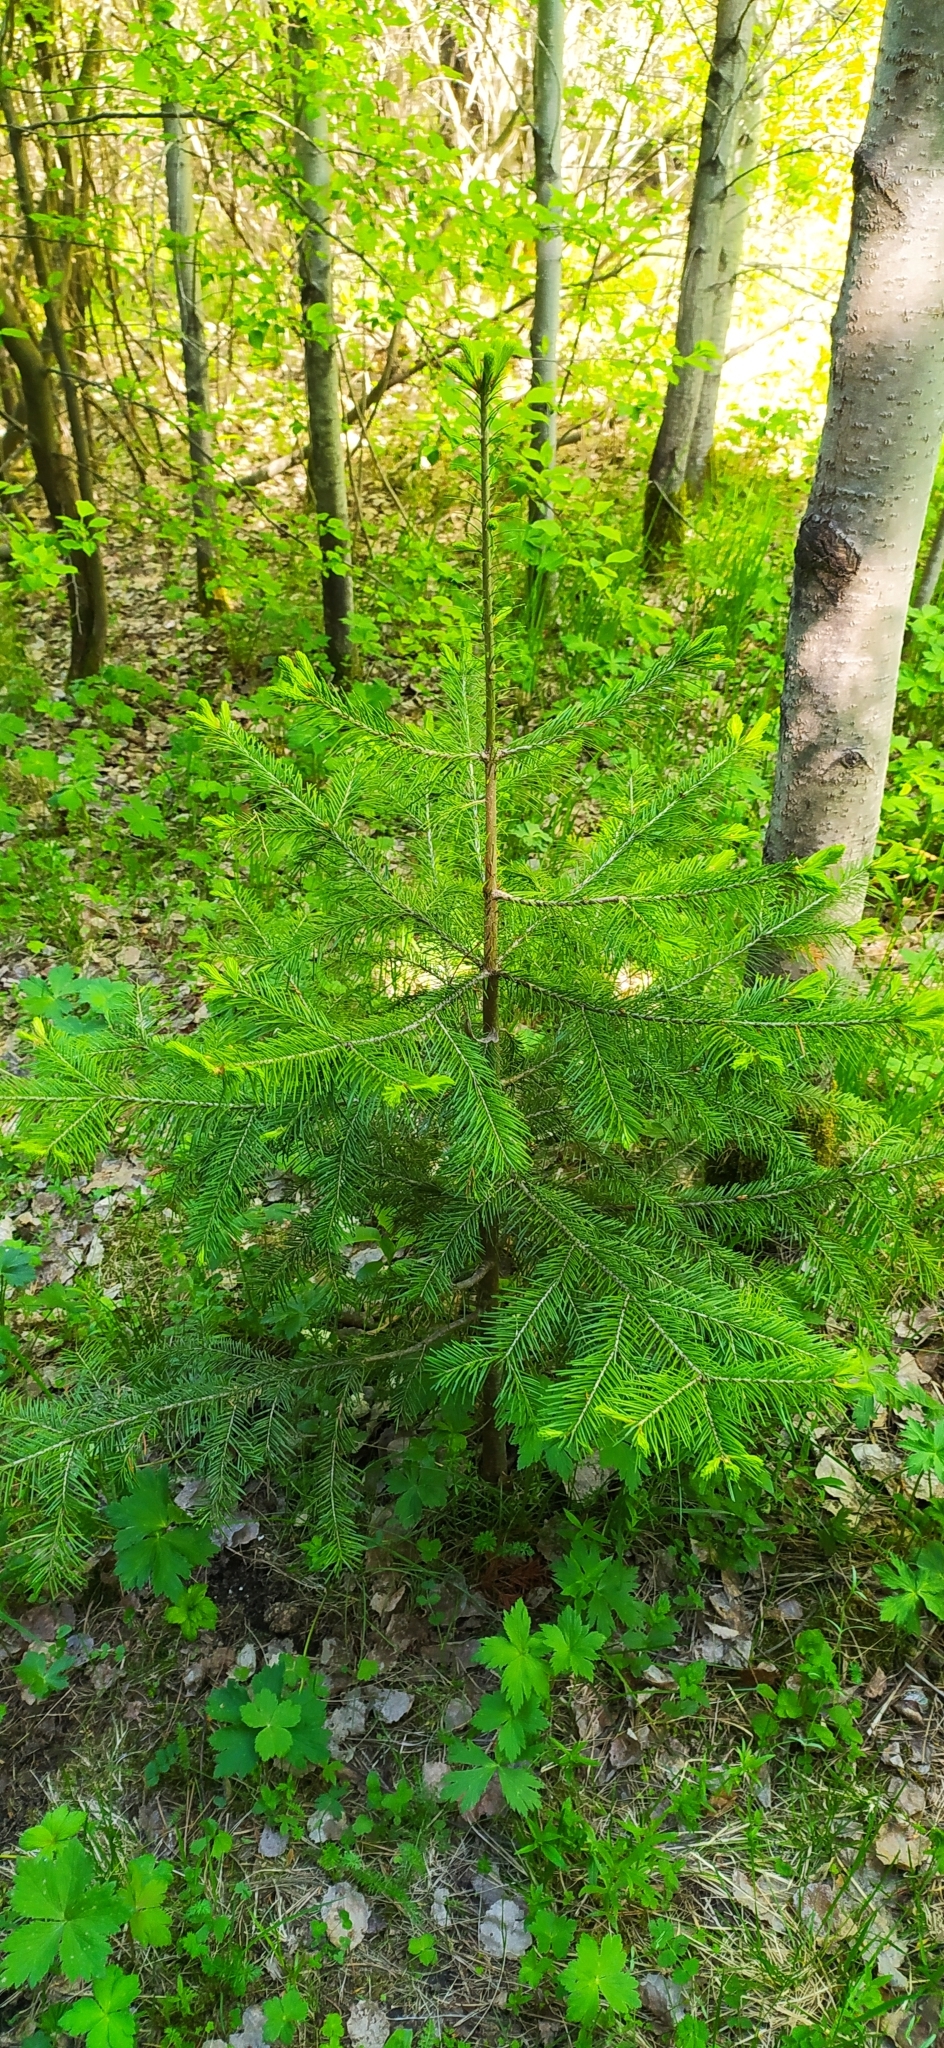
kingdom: Plantae
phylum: Tracheophyta
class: Pinopsida
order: Pinales
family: Pinaceae
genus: Abies
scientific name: Abies sibirica
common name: Siberian fir
